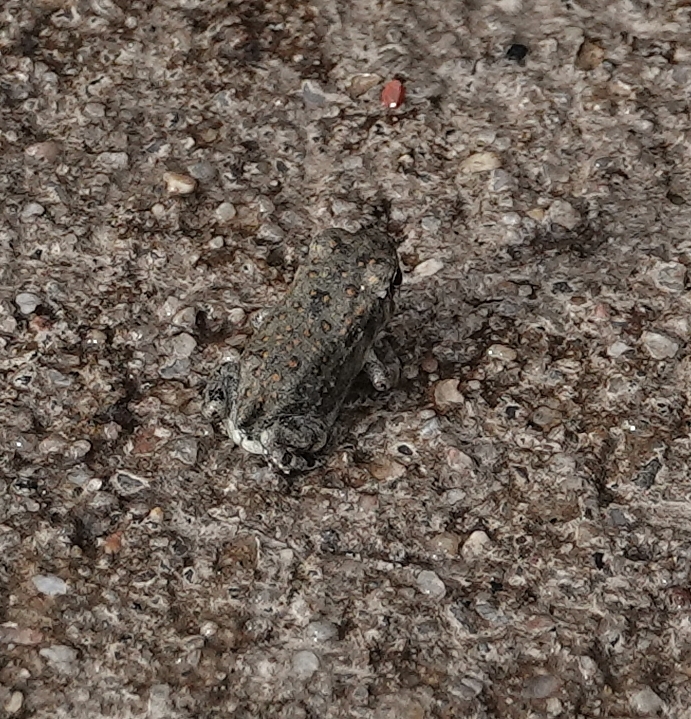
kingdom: Animalia
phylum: Chordata
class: Amphibia
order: Anura
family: Bufonidae
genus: Anaxyrus
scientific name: Anaxyrus woodhousii
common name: Woodhouse's toad
